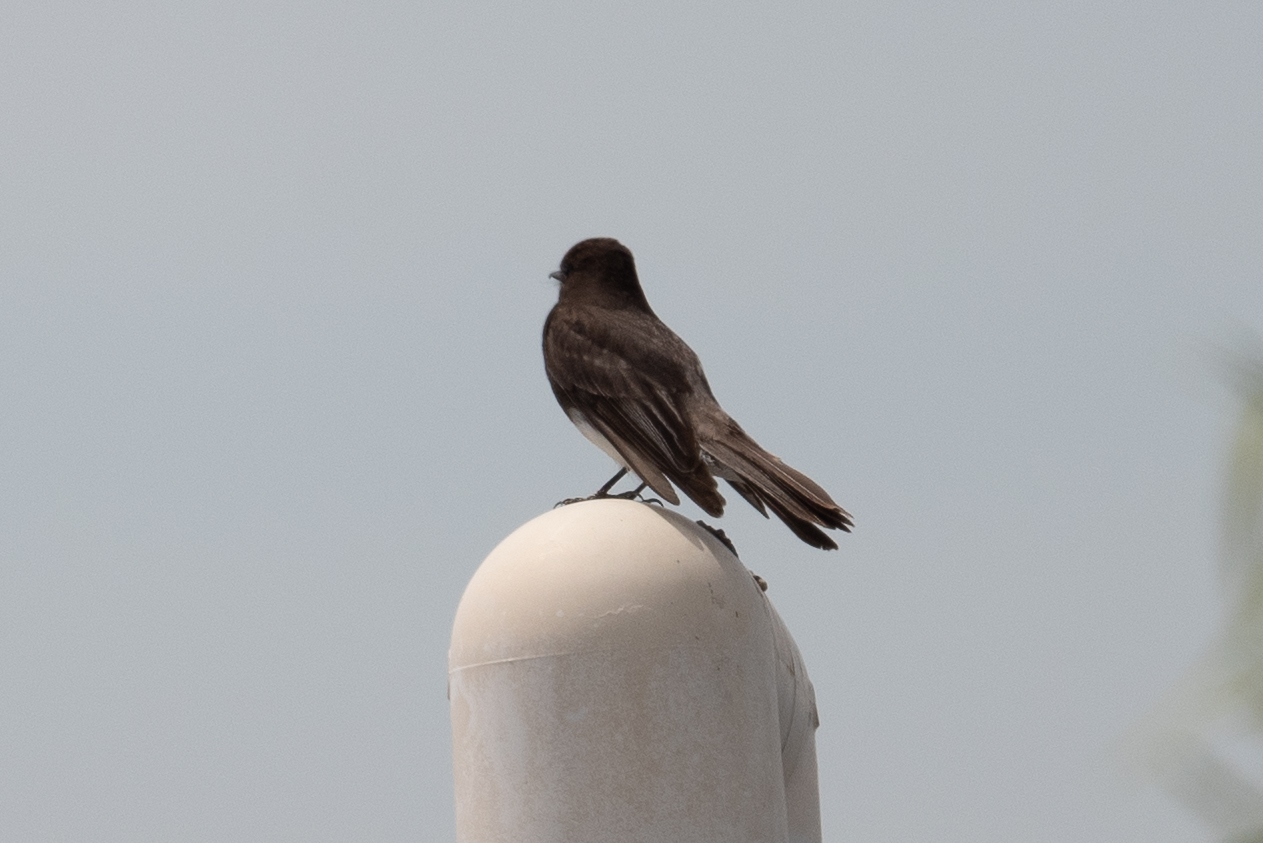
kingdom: Animalia
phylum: Chordata
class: Aves
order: Passeriformes
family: Tyrannidae
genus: Sayornis
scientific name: Sayornis nigricans
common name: Black phoebe
